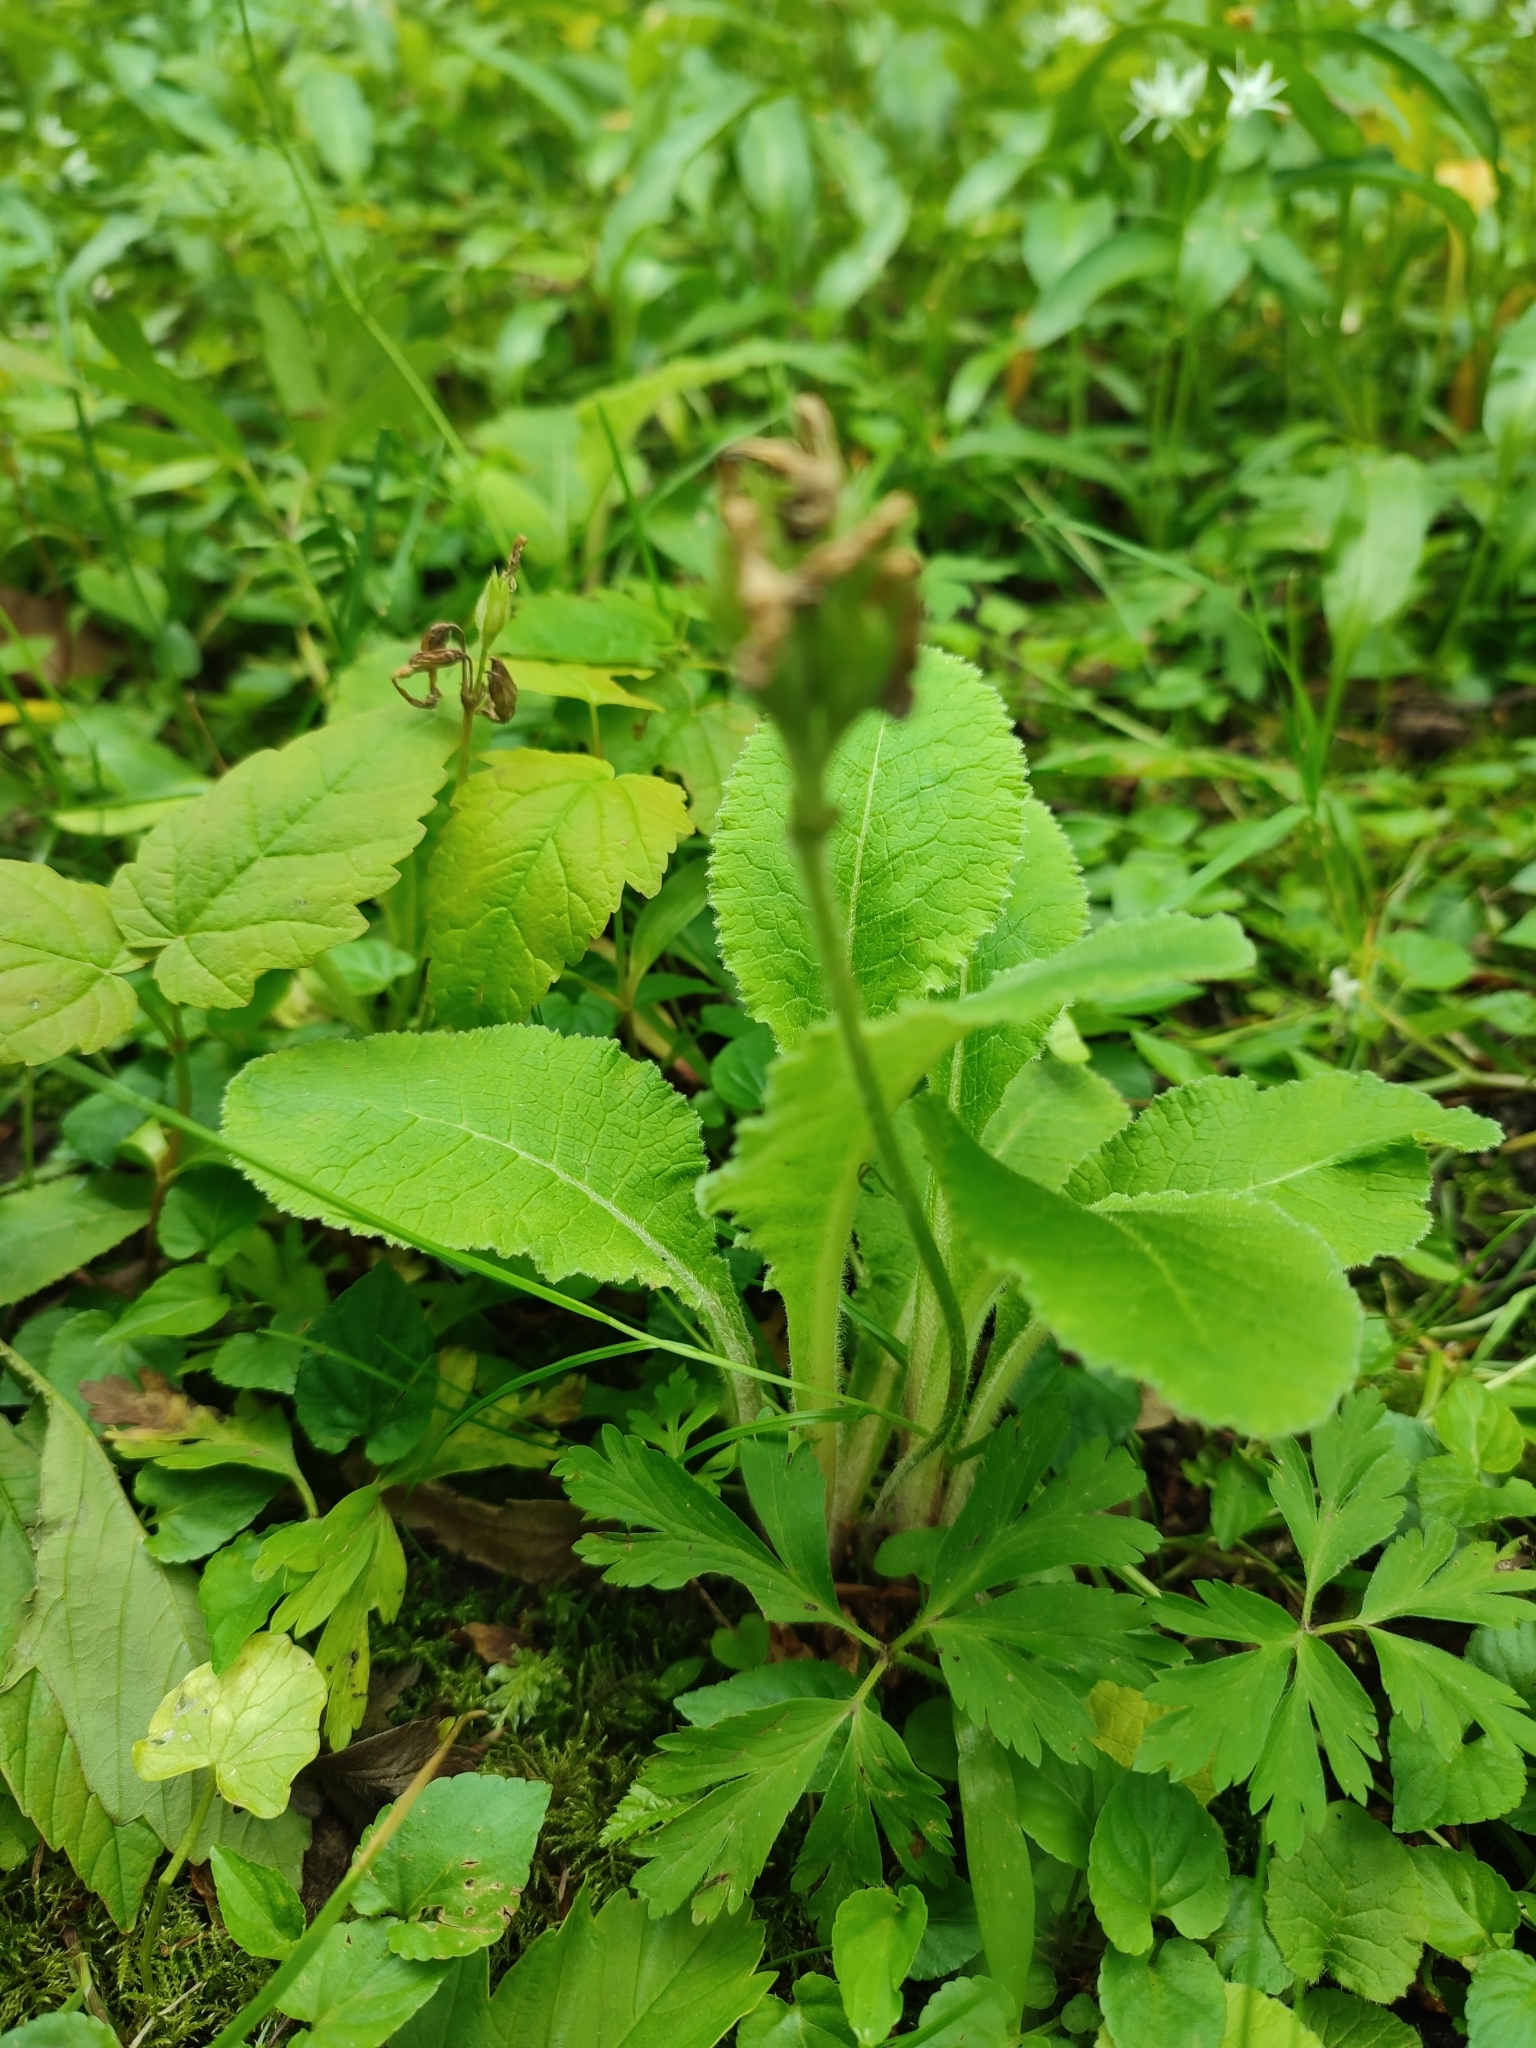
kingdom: Plantae
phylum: Tracheophyta
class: Magnoliopsida
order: Ericales
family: Primulaceae
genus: Primula
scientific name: Primula elatior
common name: Oxlip
